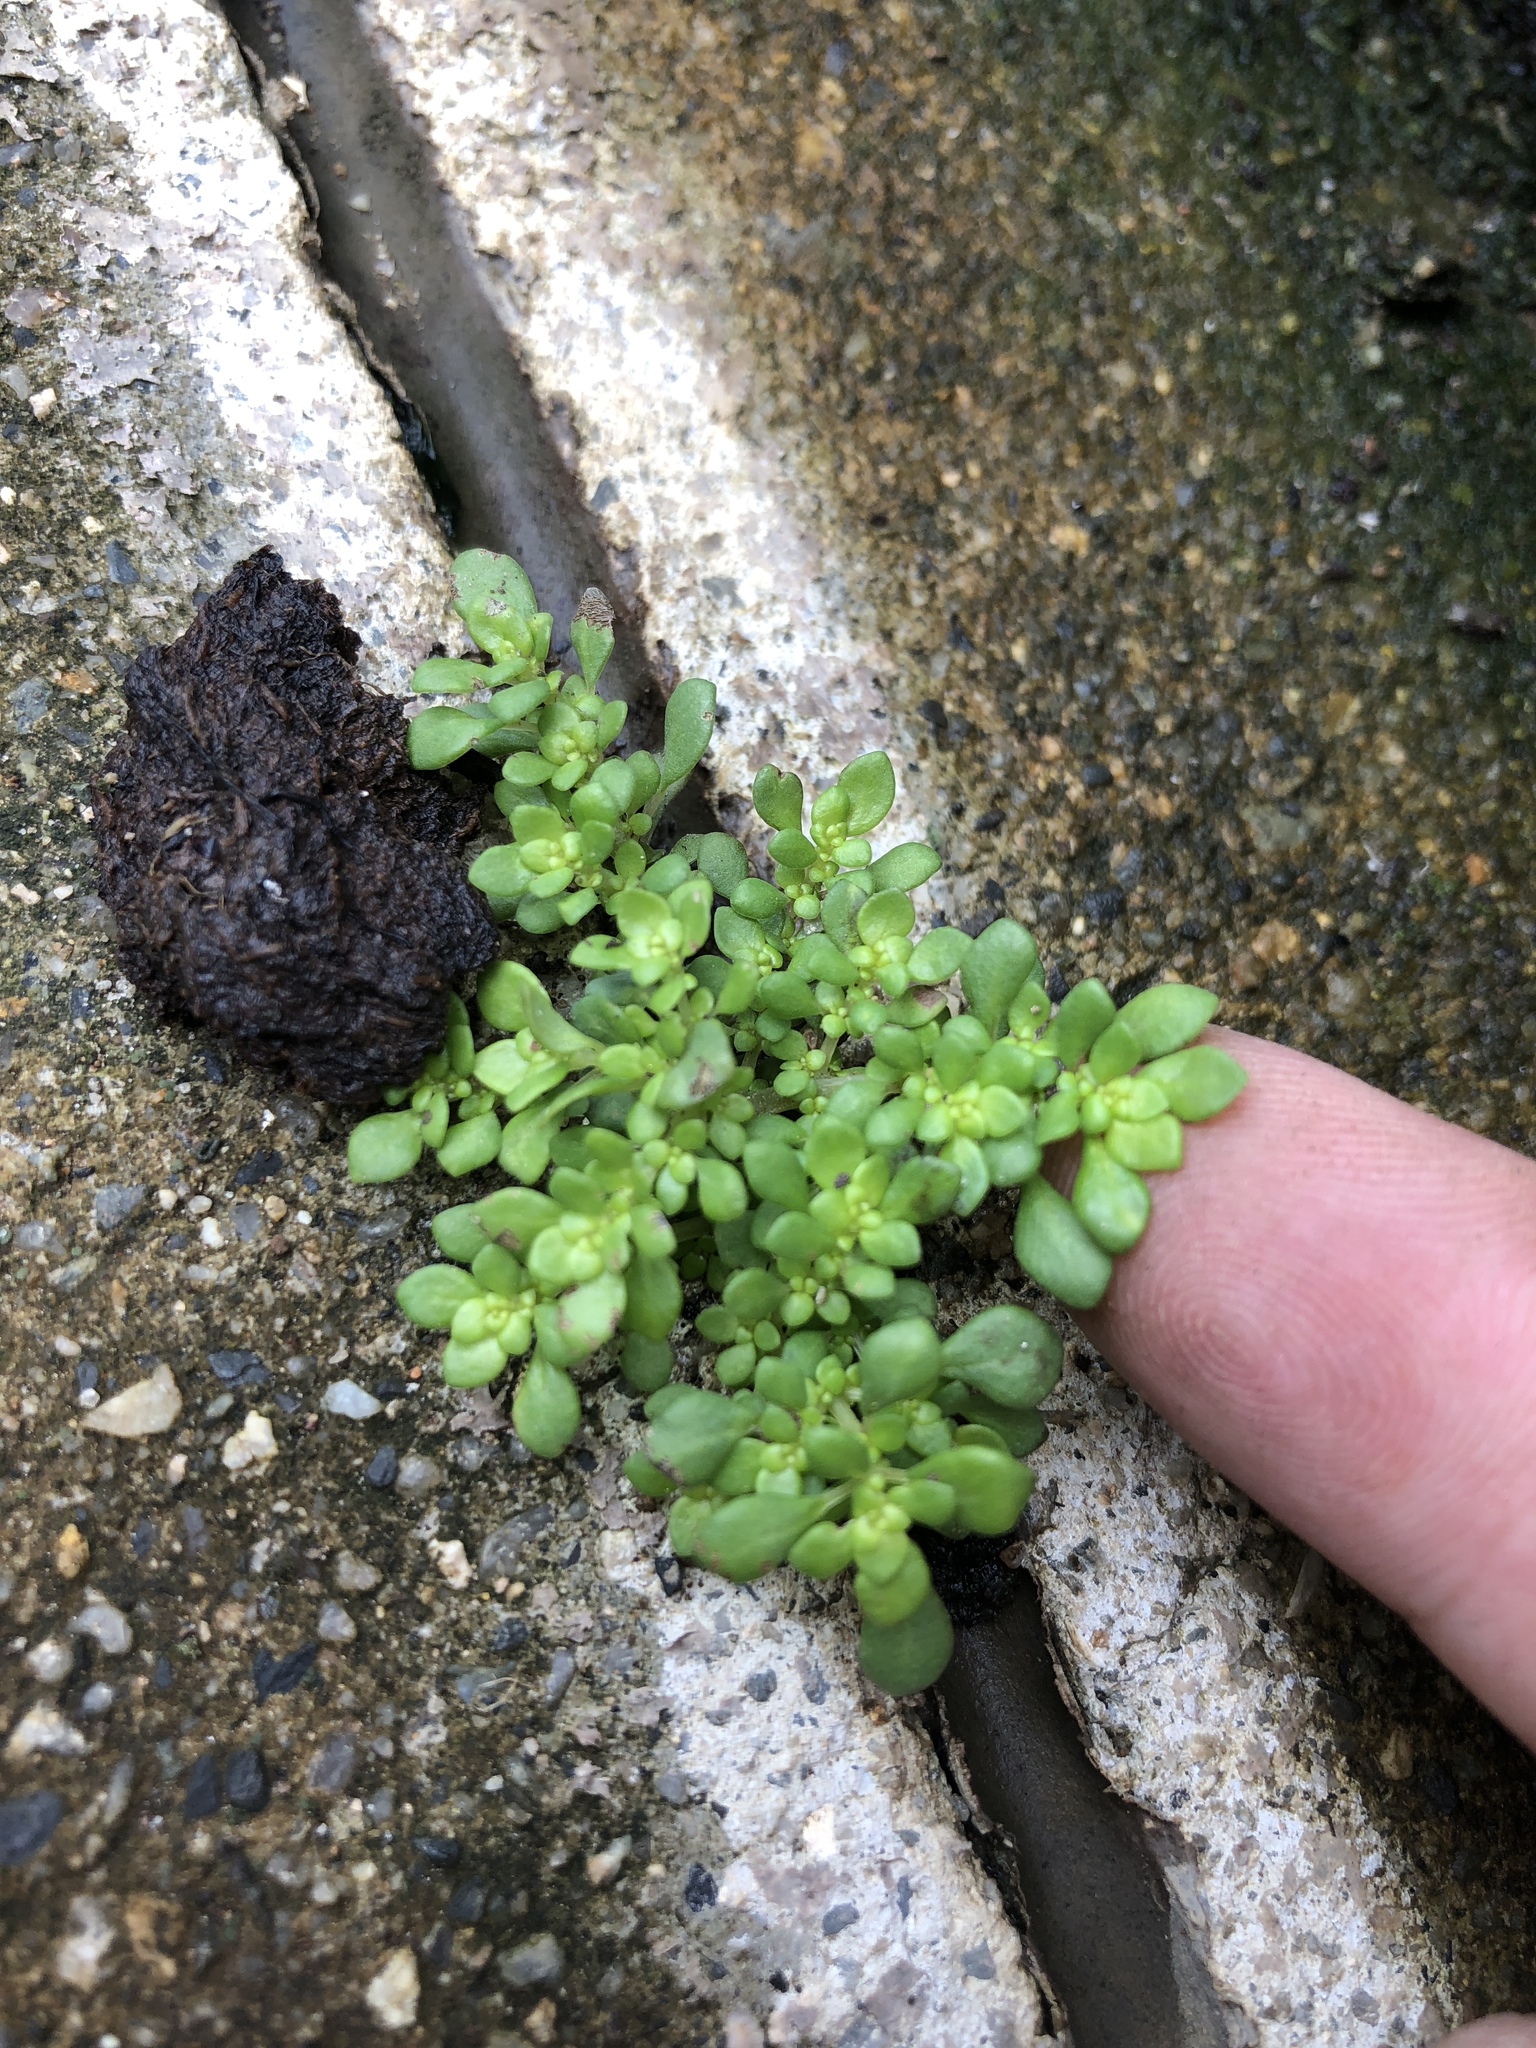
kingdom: Plantae
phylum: Tracheophyta
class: Magnoliopsida
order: Rosales
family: Urticaceae
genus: Pilea
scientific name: Pilea microphylla
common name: Artillery-plant
